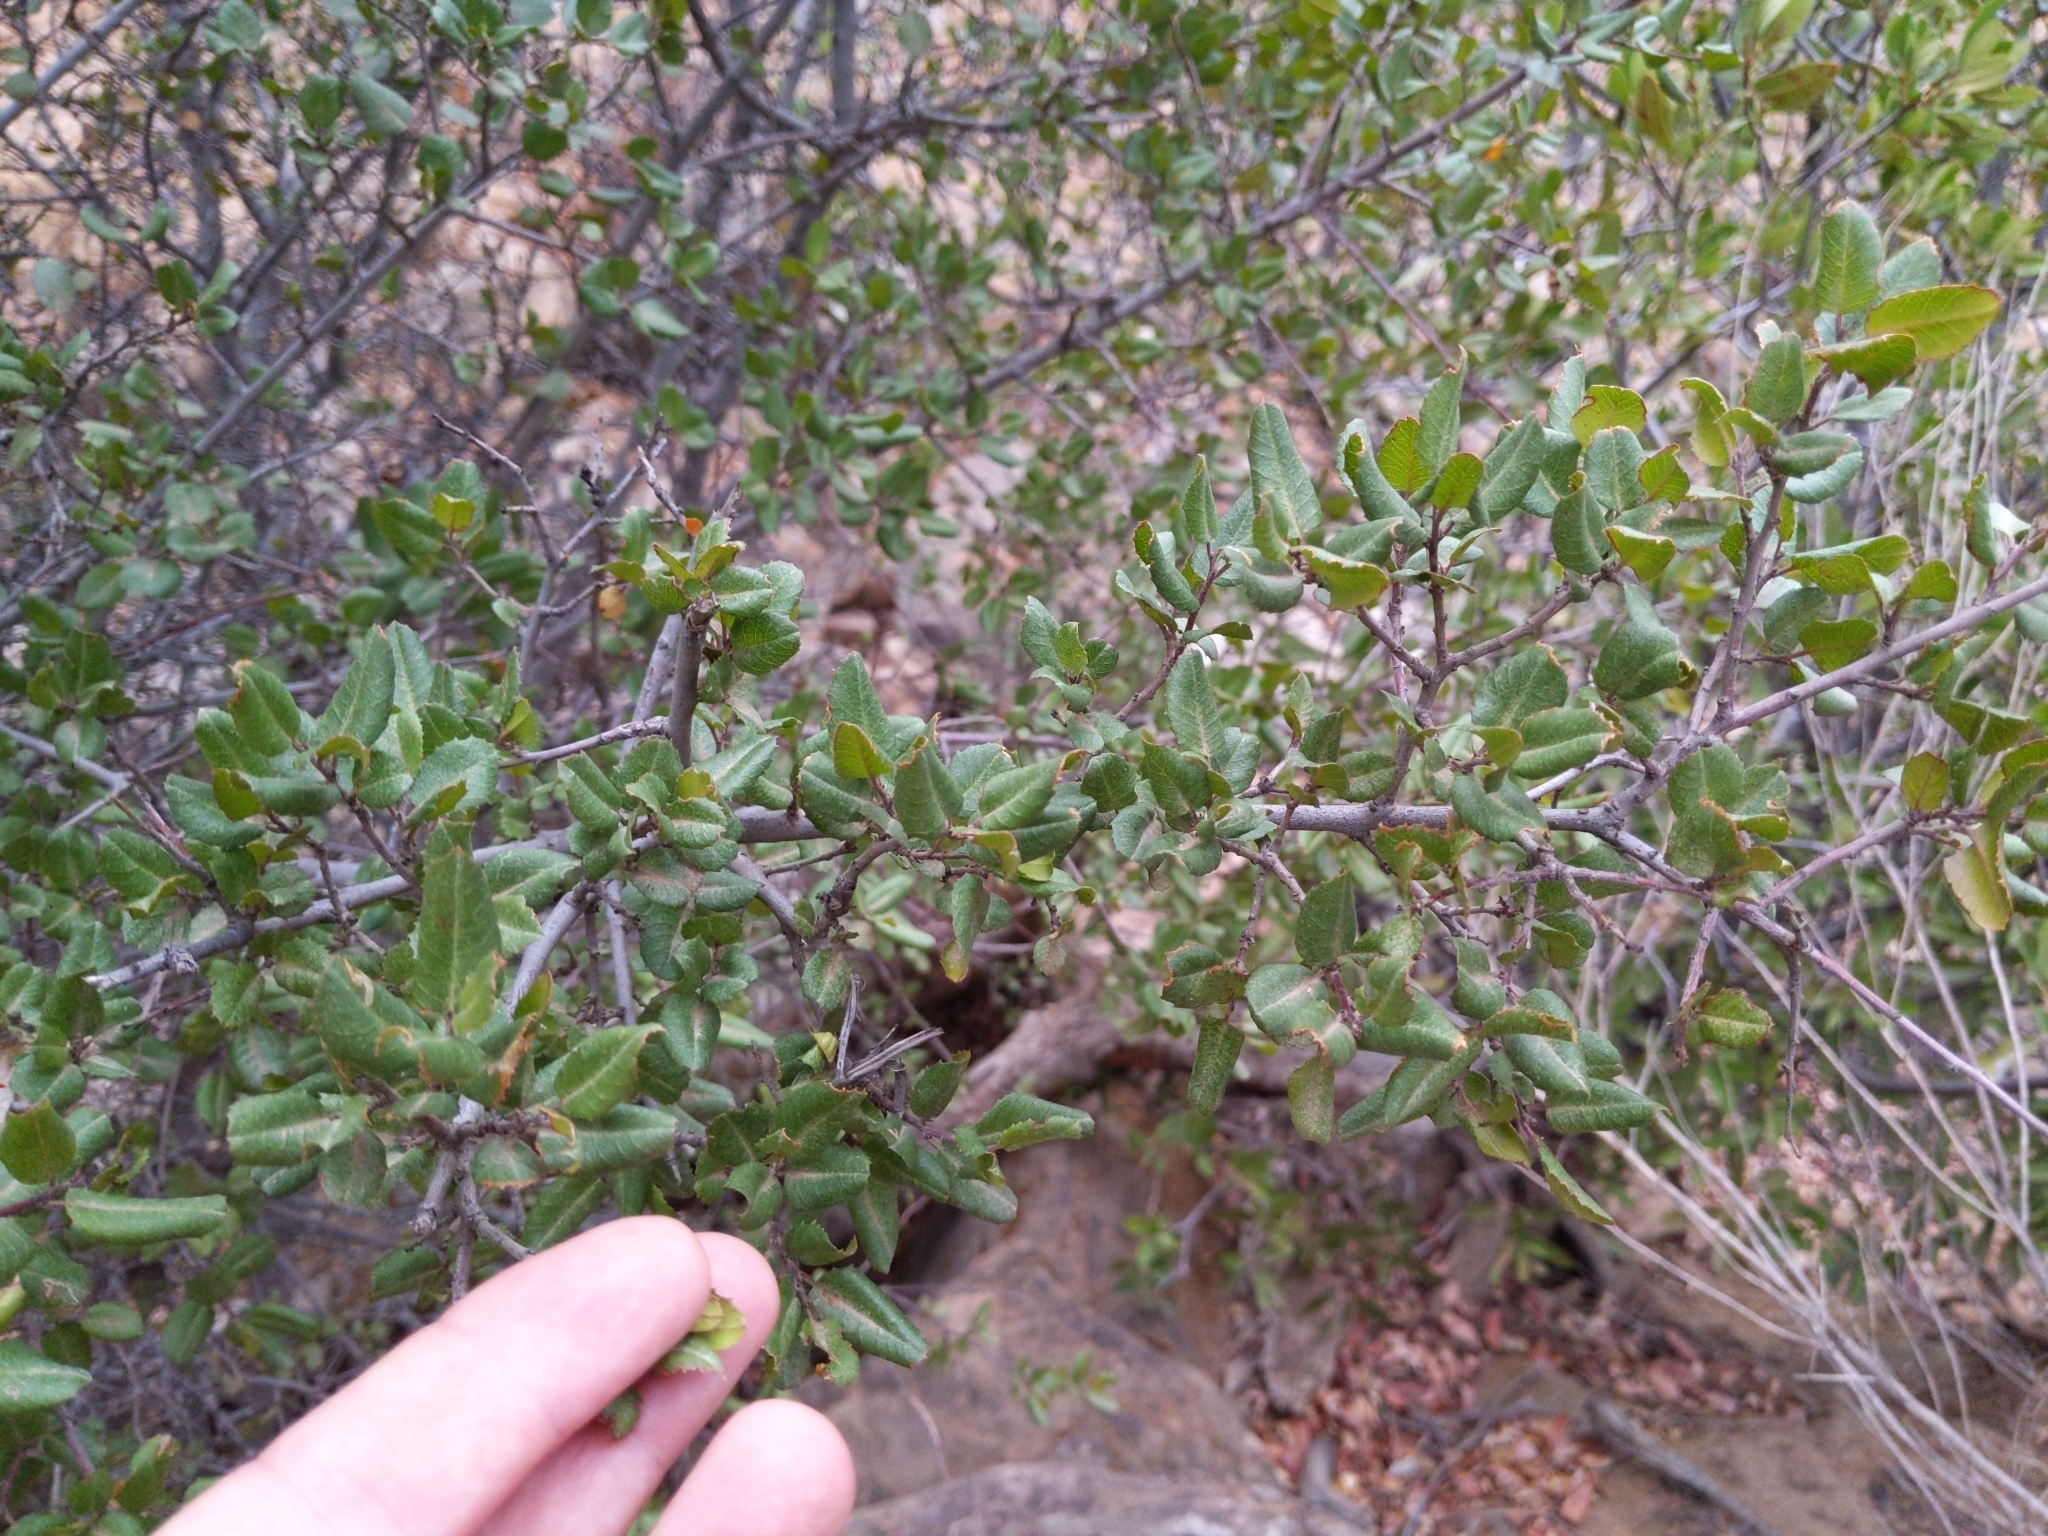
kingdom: Plantae
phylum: Tracheophyta
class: Magnoliopsida
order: Rosales
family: Rhamnaceae
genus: Endotropis
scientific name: Endotropis crocea
